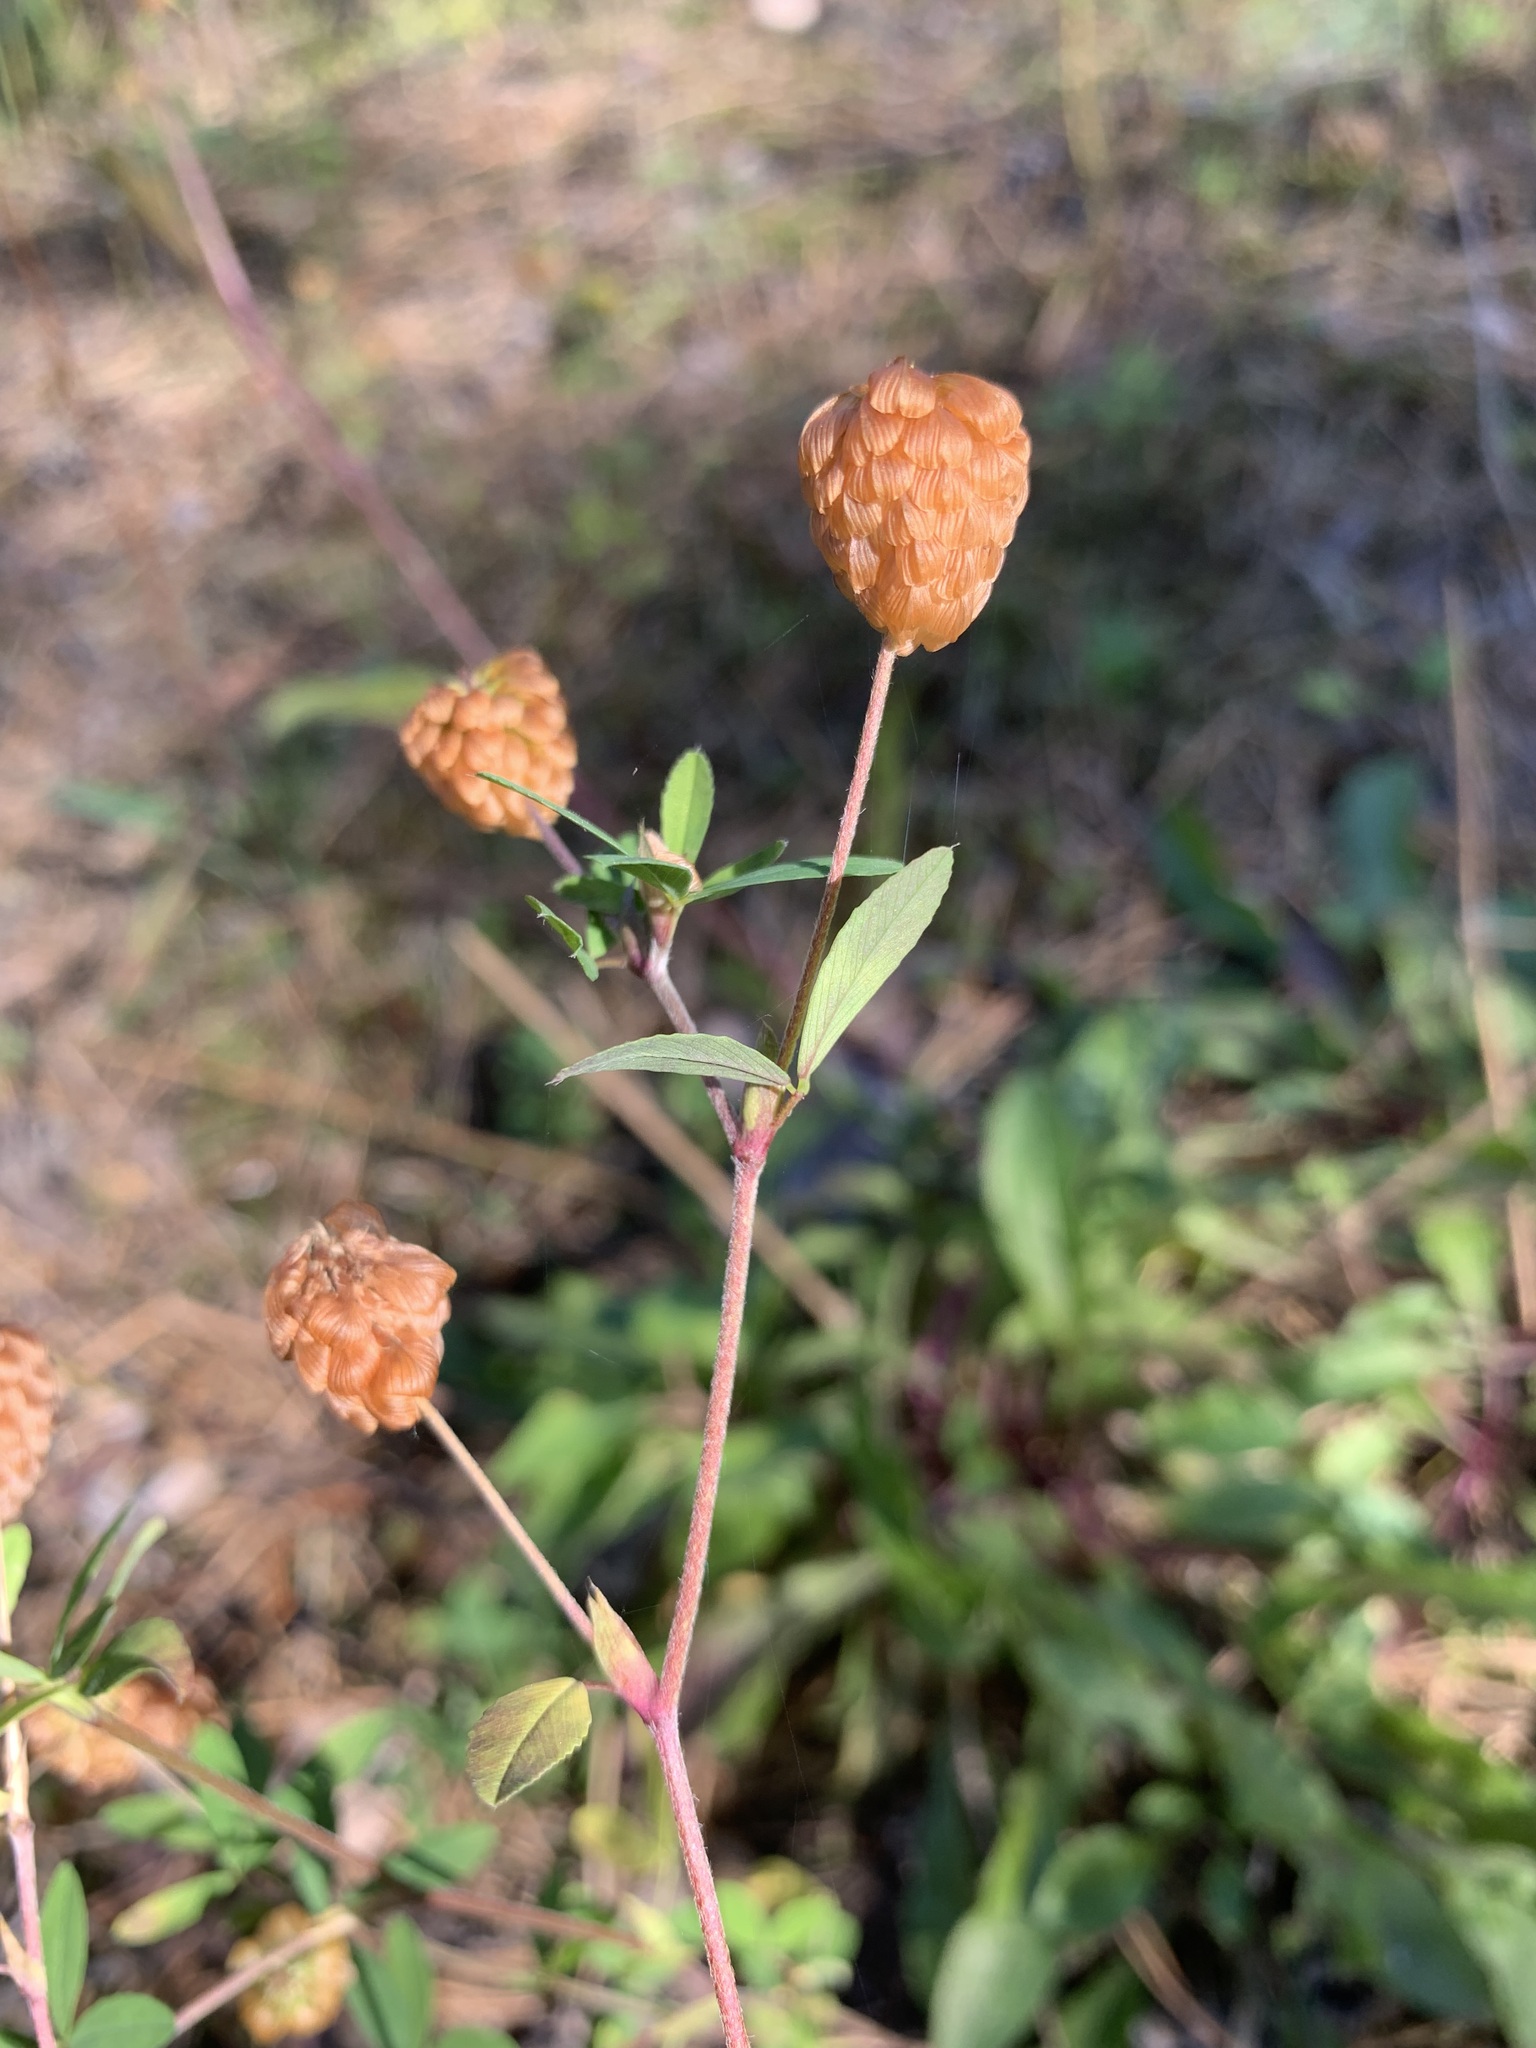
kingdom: Plantae
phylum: Tracheophyta
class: Magnoliopsida
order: Fabales
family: Fabaceae
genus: Trifolium
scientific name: Trifolium aureum
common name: Golden clover
